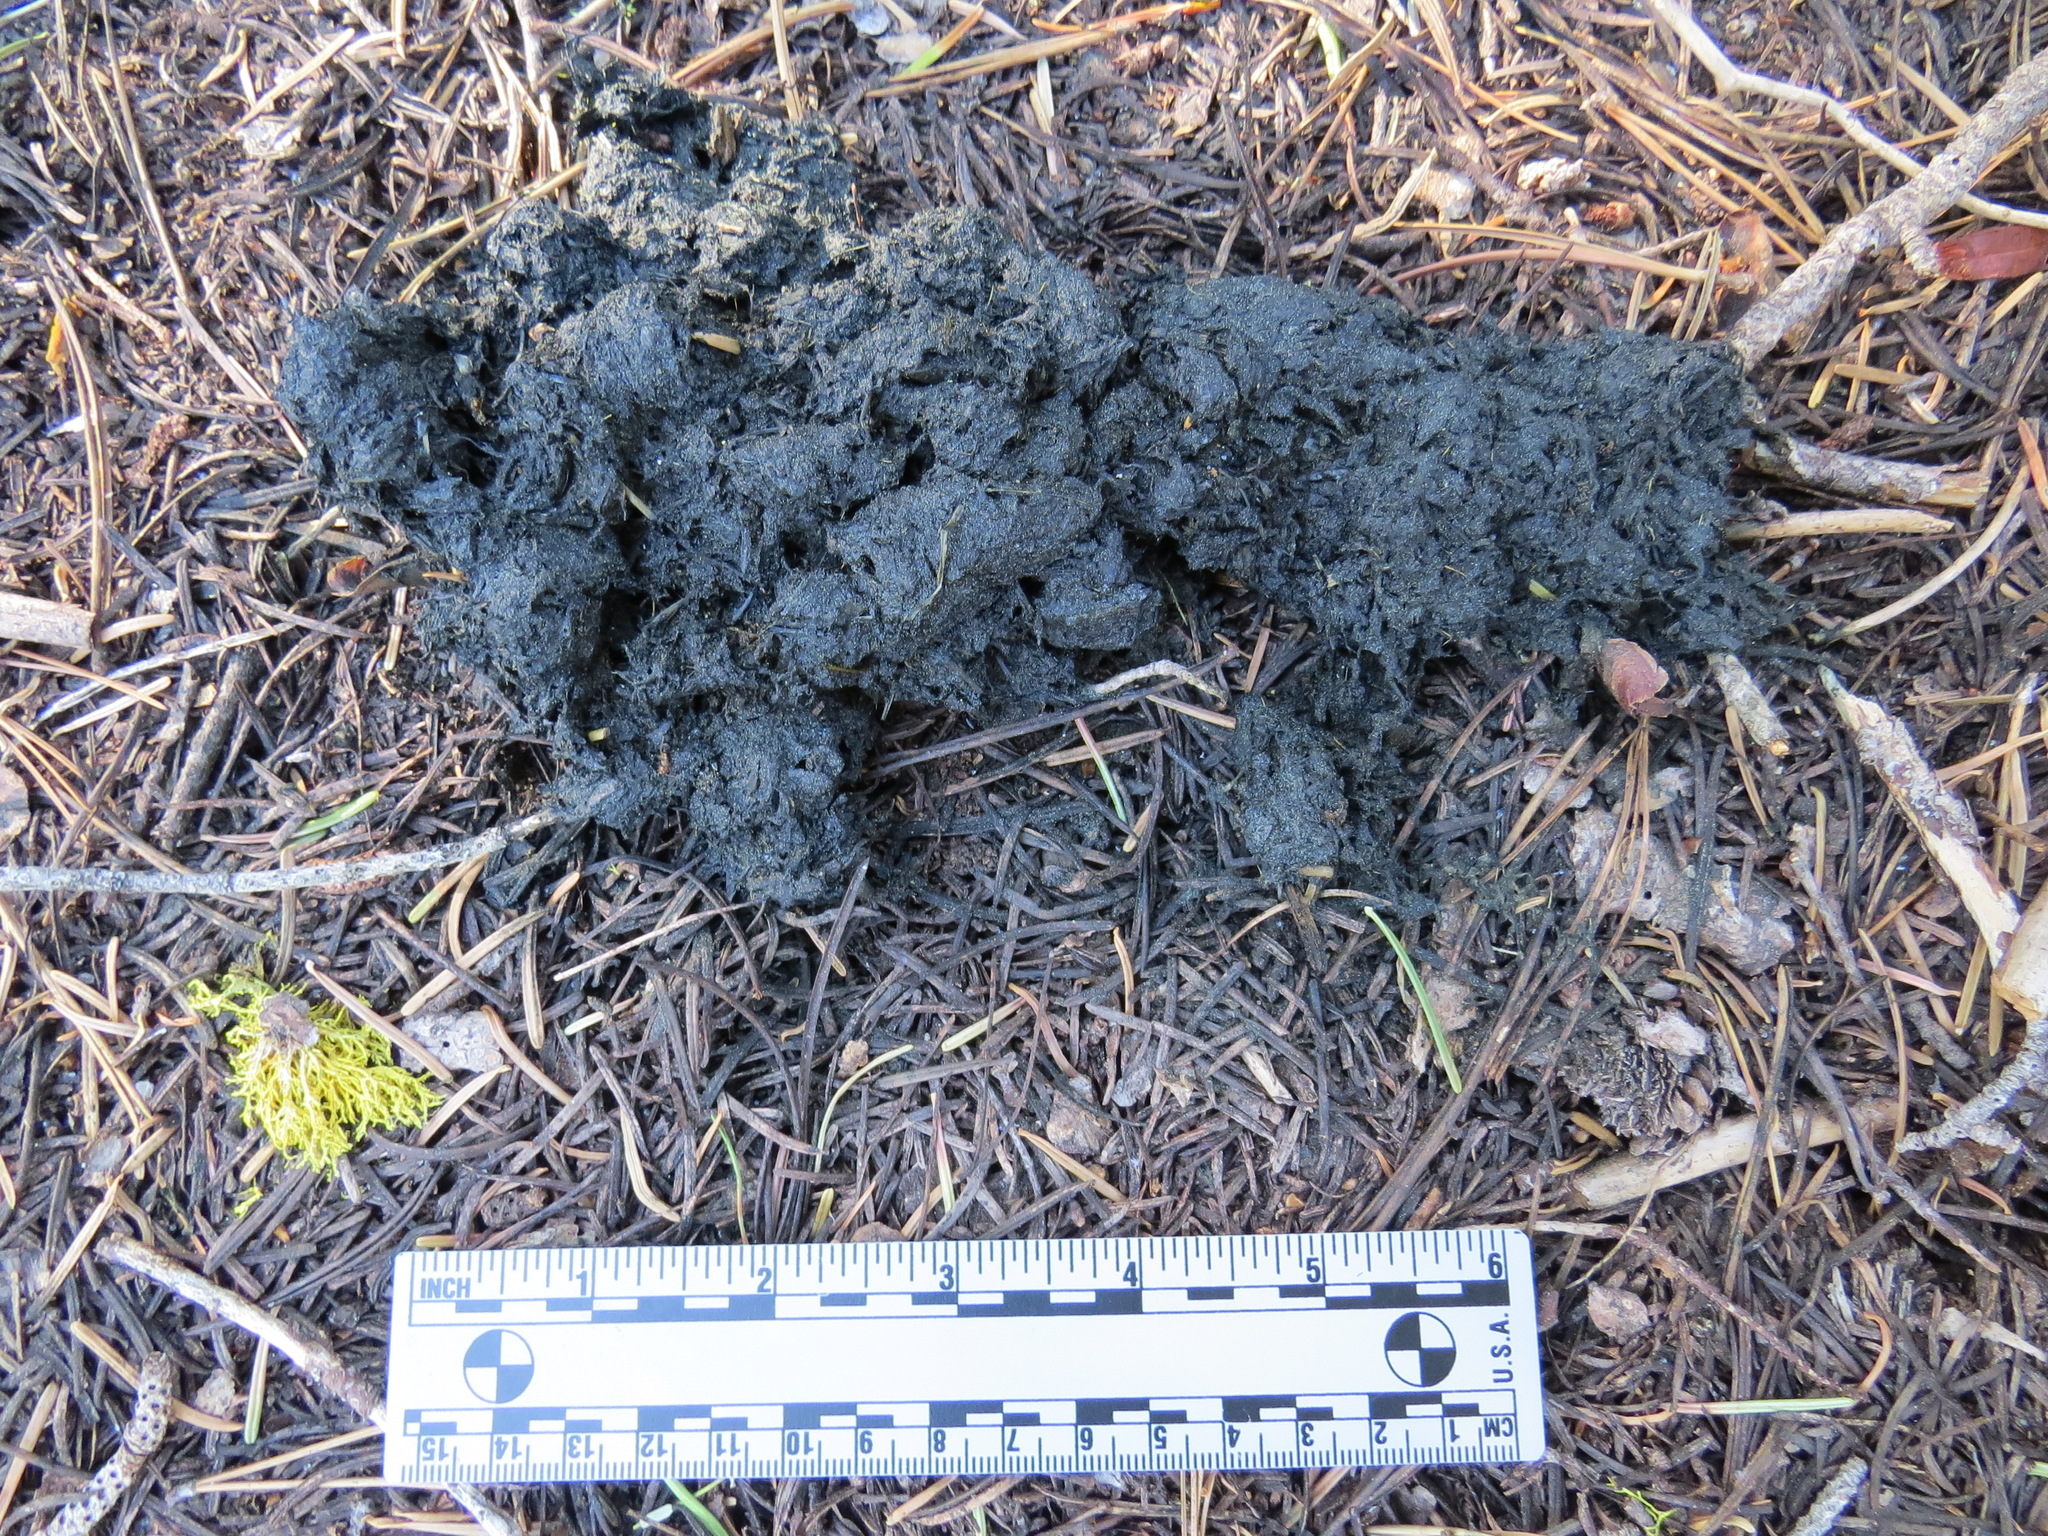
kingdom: Animalia
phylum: Chordata
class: Mammalia
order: Carnivora
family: Ursidae
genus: Ursus
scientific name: Ursus americanus
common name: American black bear
